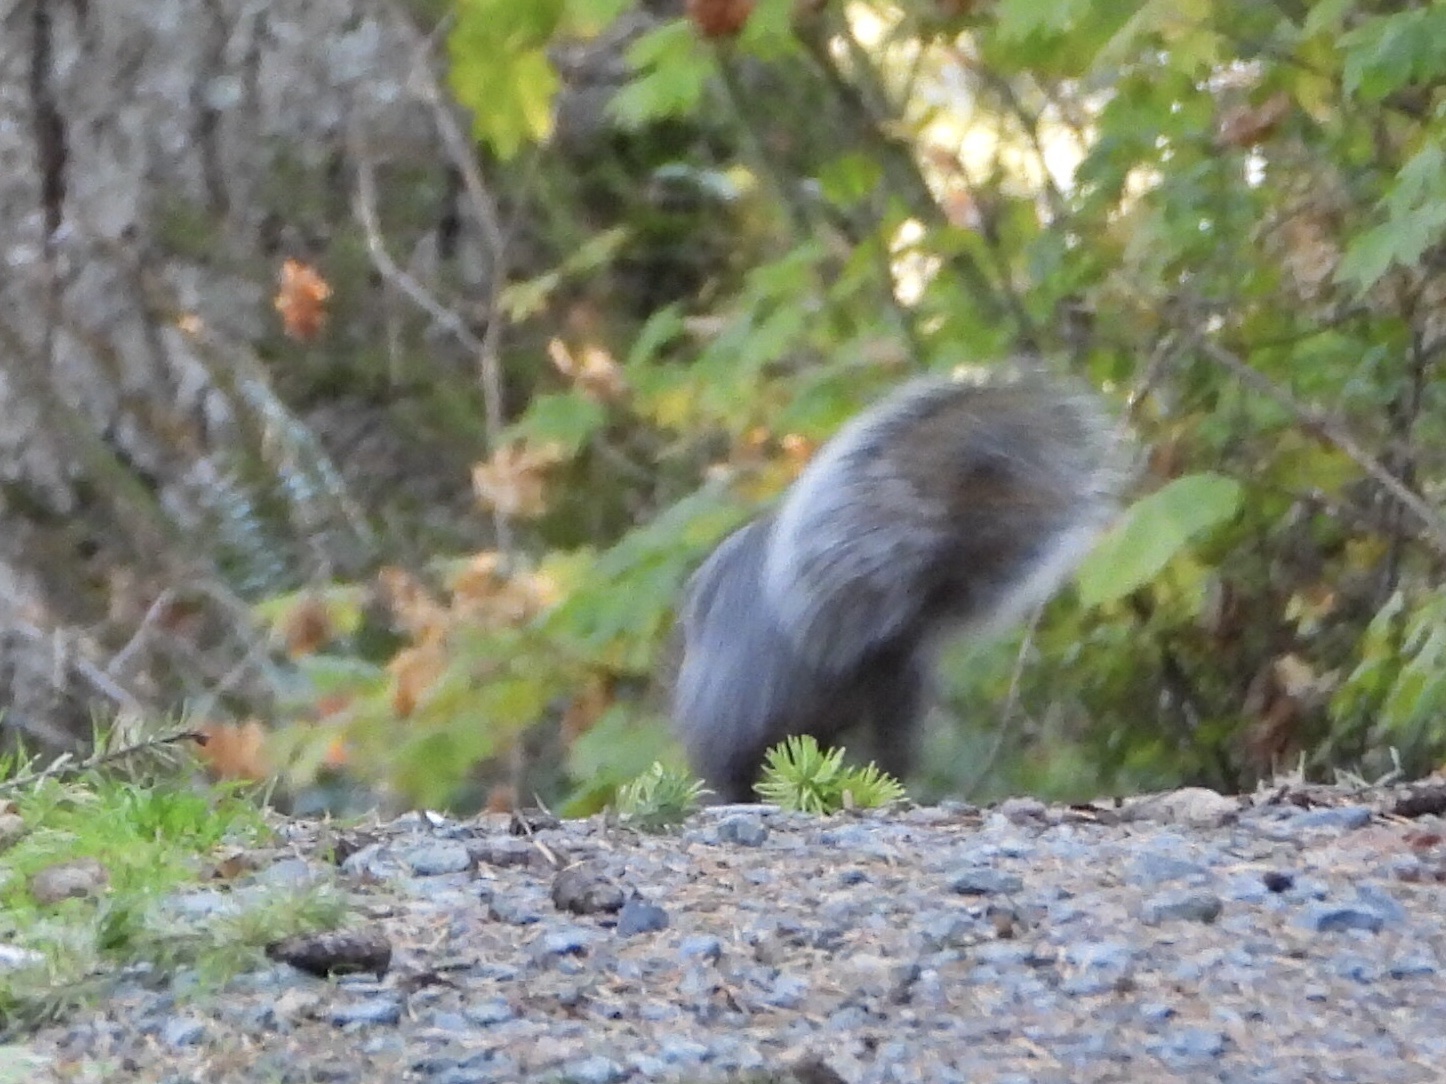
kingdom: Animalia
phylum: Chordata
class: Mammalia
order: Rodentia
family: Sciuridae
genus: Sciurus
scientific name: Sciurus carolinensis
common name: Eastern gray squirrel
